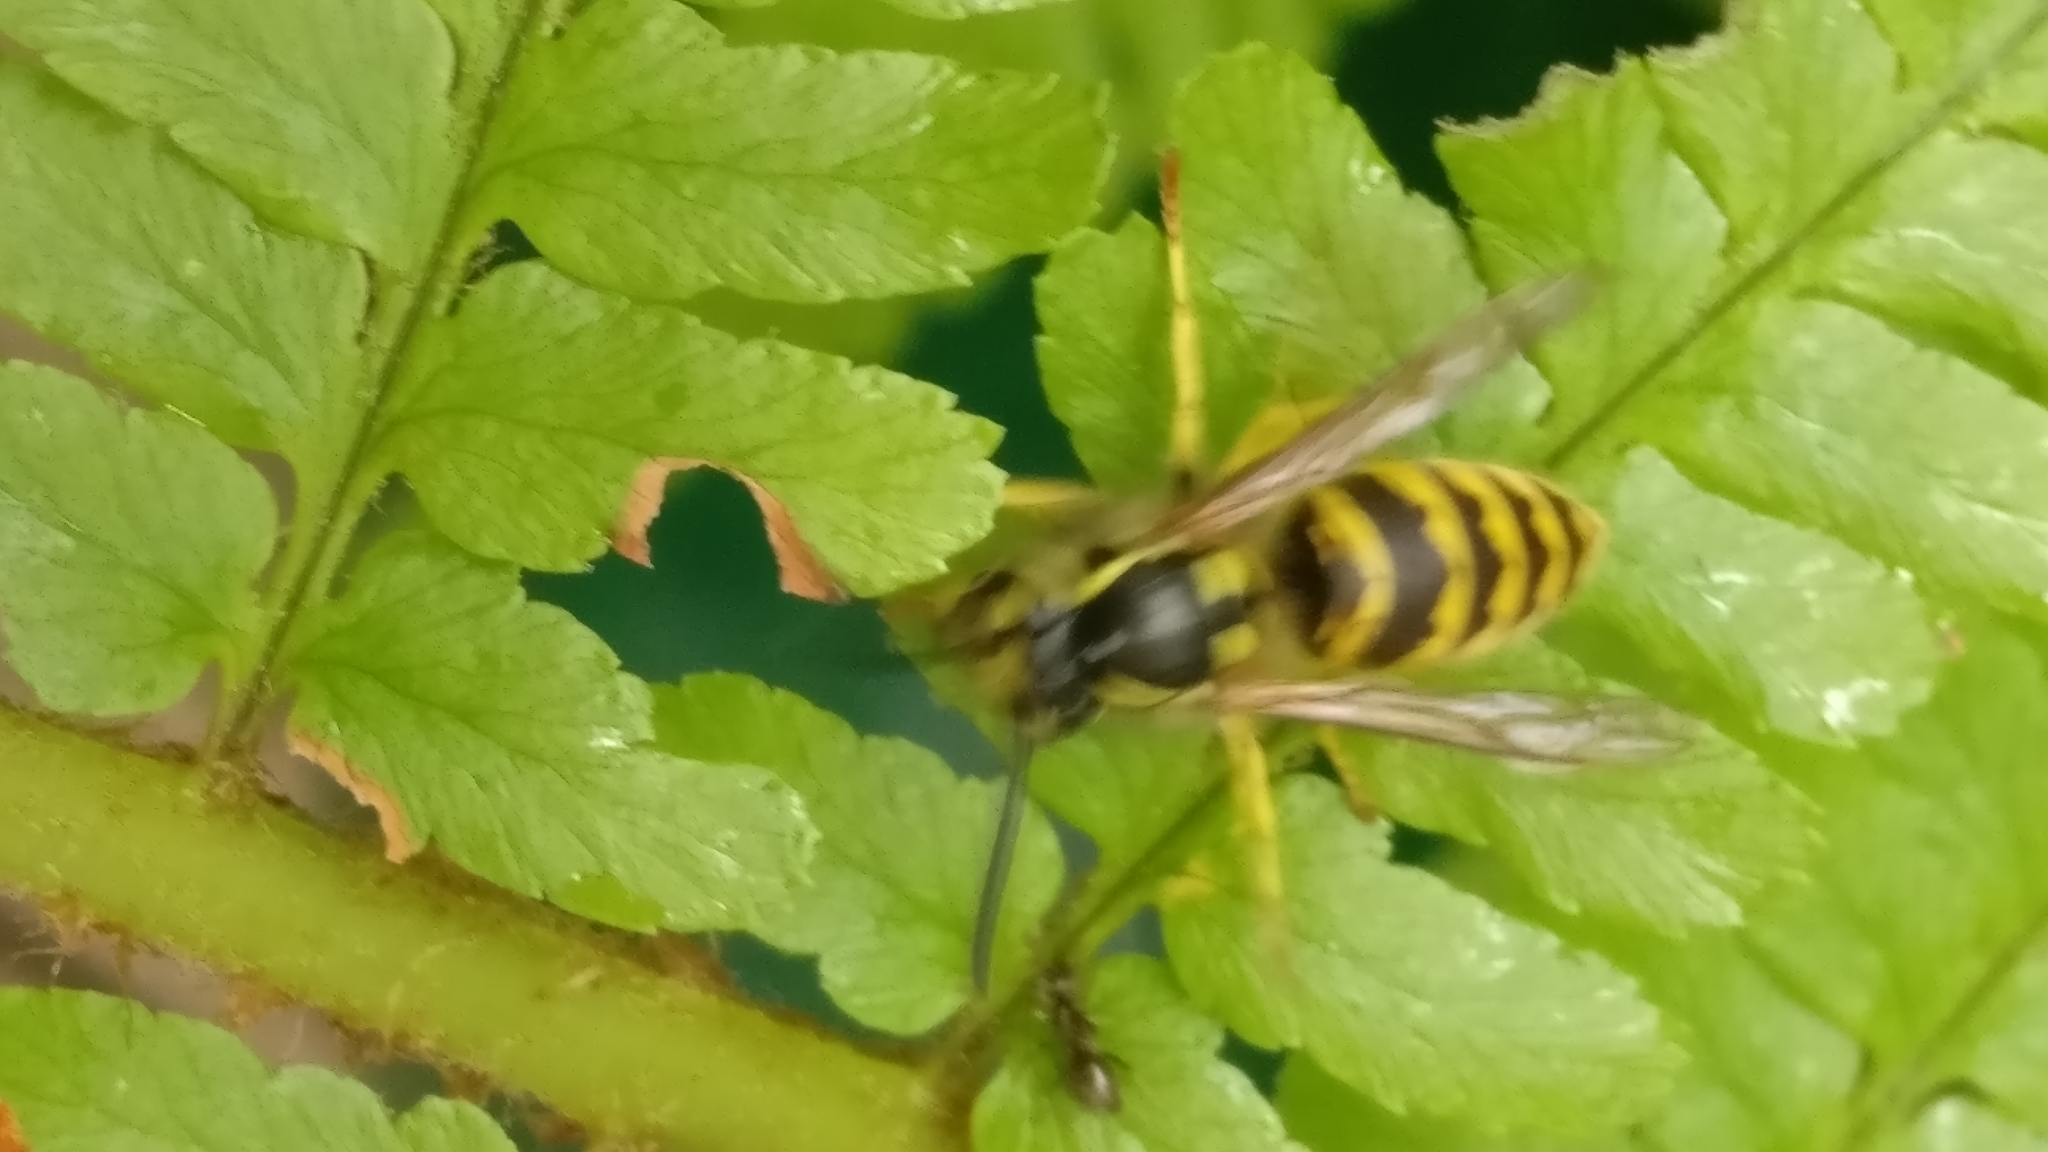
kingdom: Animalia
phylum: Arthropoda
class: Insecta
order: Hymenoptera
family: Vespidae
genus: Vespula
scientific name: Vespula vulgaris
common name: Common wasp
